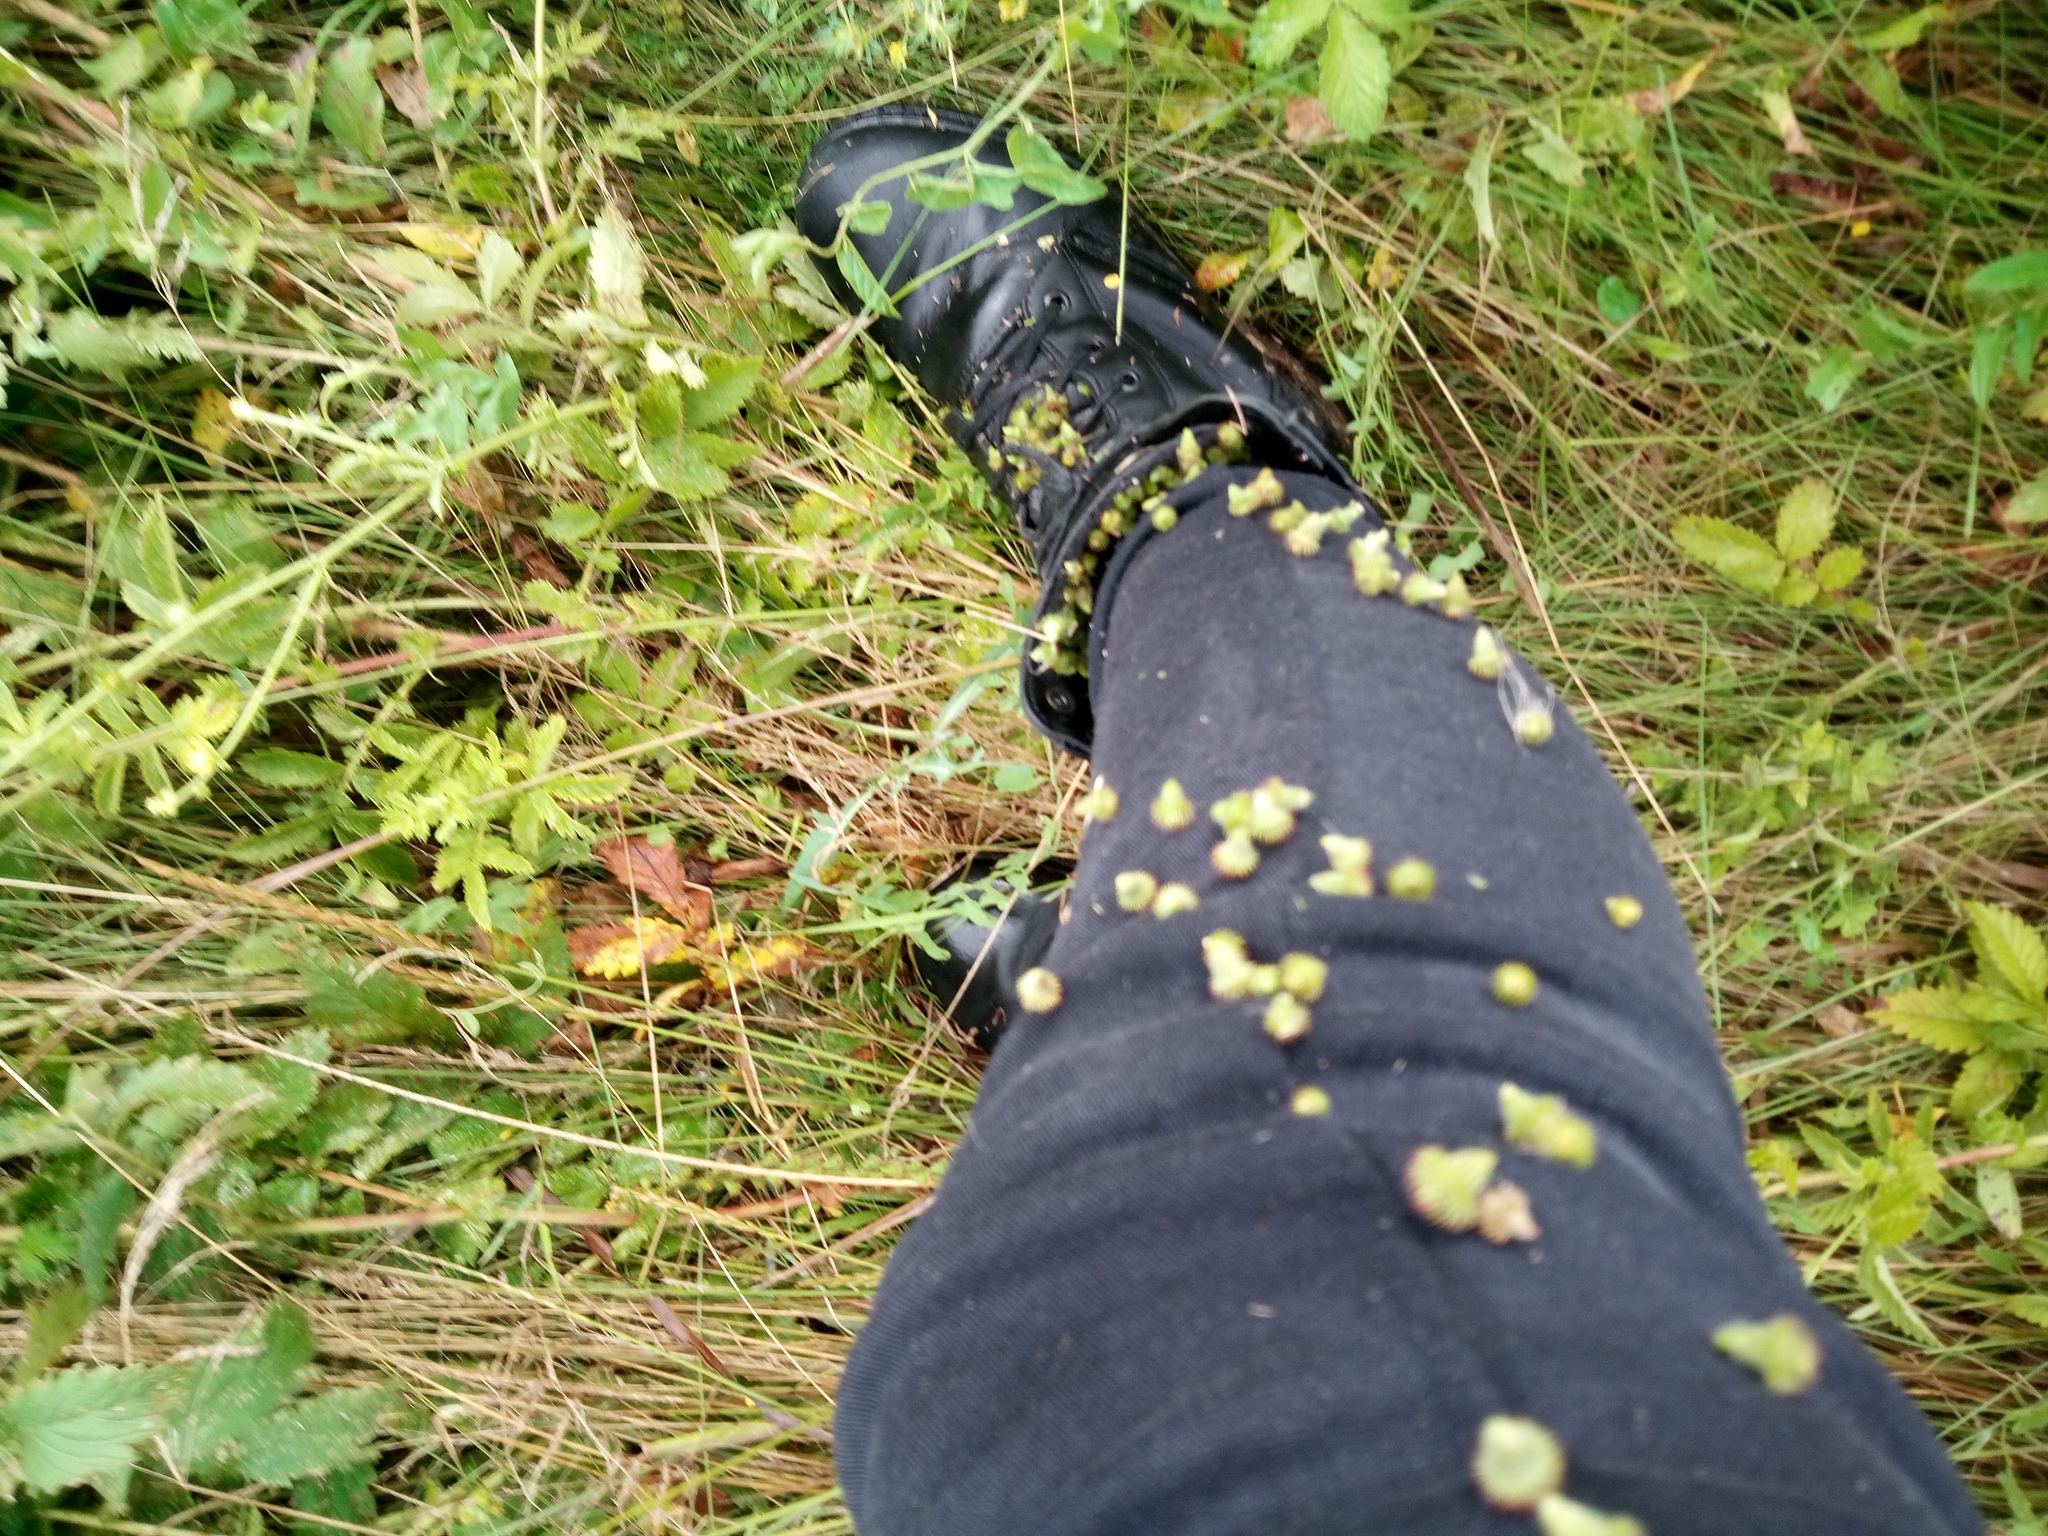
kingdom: Plantae
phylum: Tracheophyta
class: Magnoliopsida
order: Rosales
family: Rosaceae
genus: Agrimonia
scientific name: Agrimonia eupatoria
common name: Agrimony
